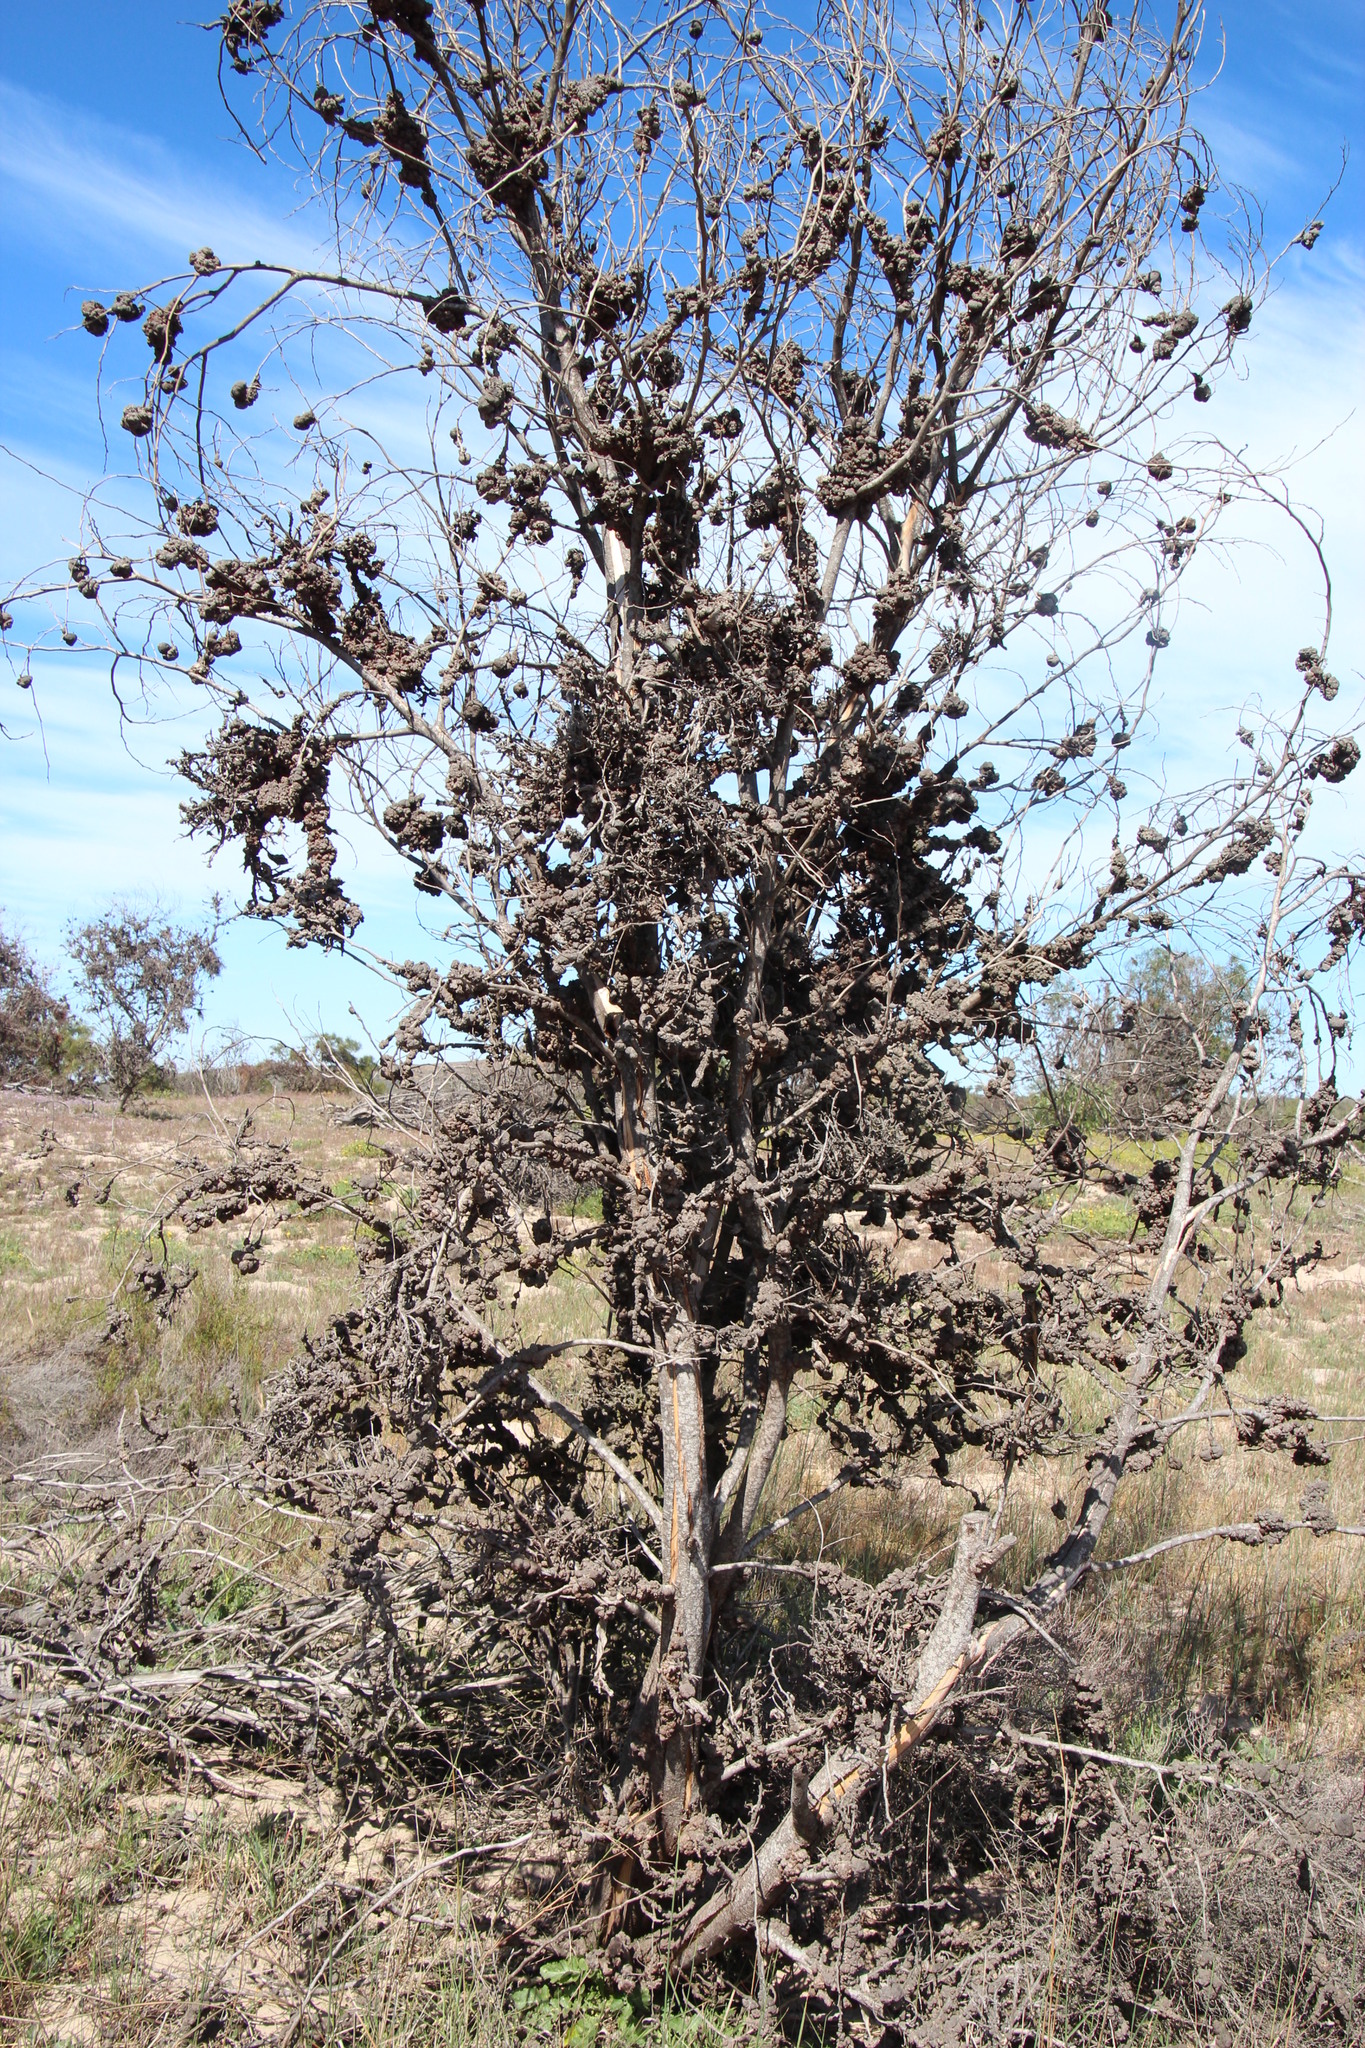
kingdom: Plantae
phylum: Tracheophyta
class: Magnoliopsida
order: Fabales
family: Fabaceae
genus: Acacia
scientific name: Acacia saligna
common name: Orange wattle
